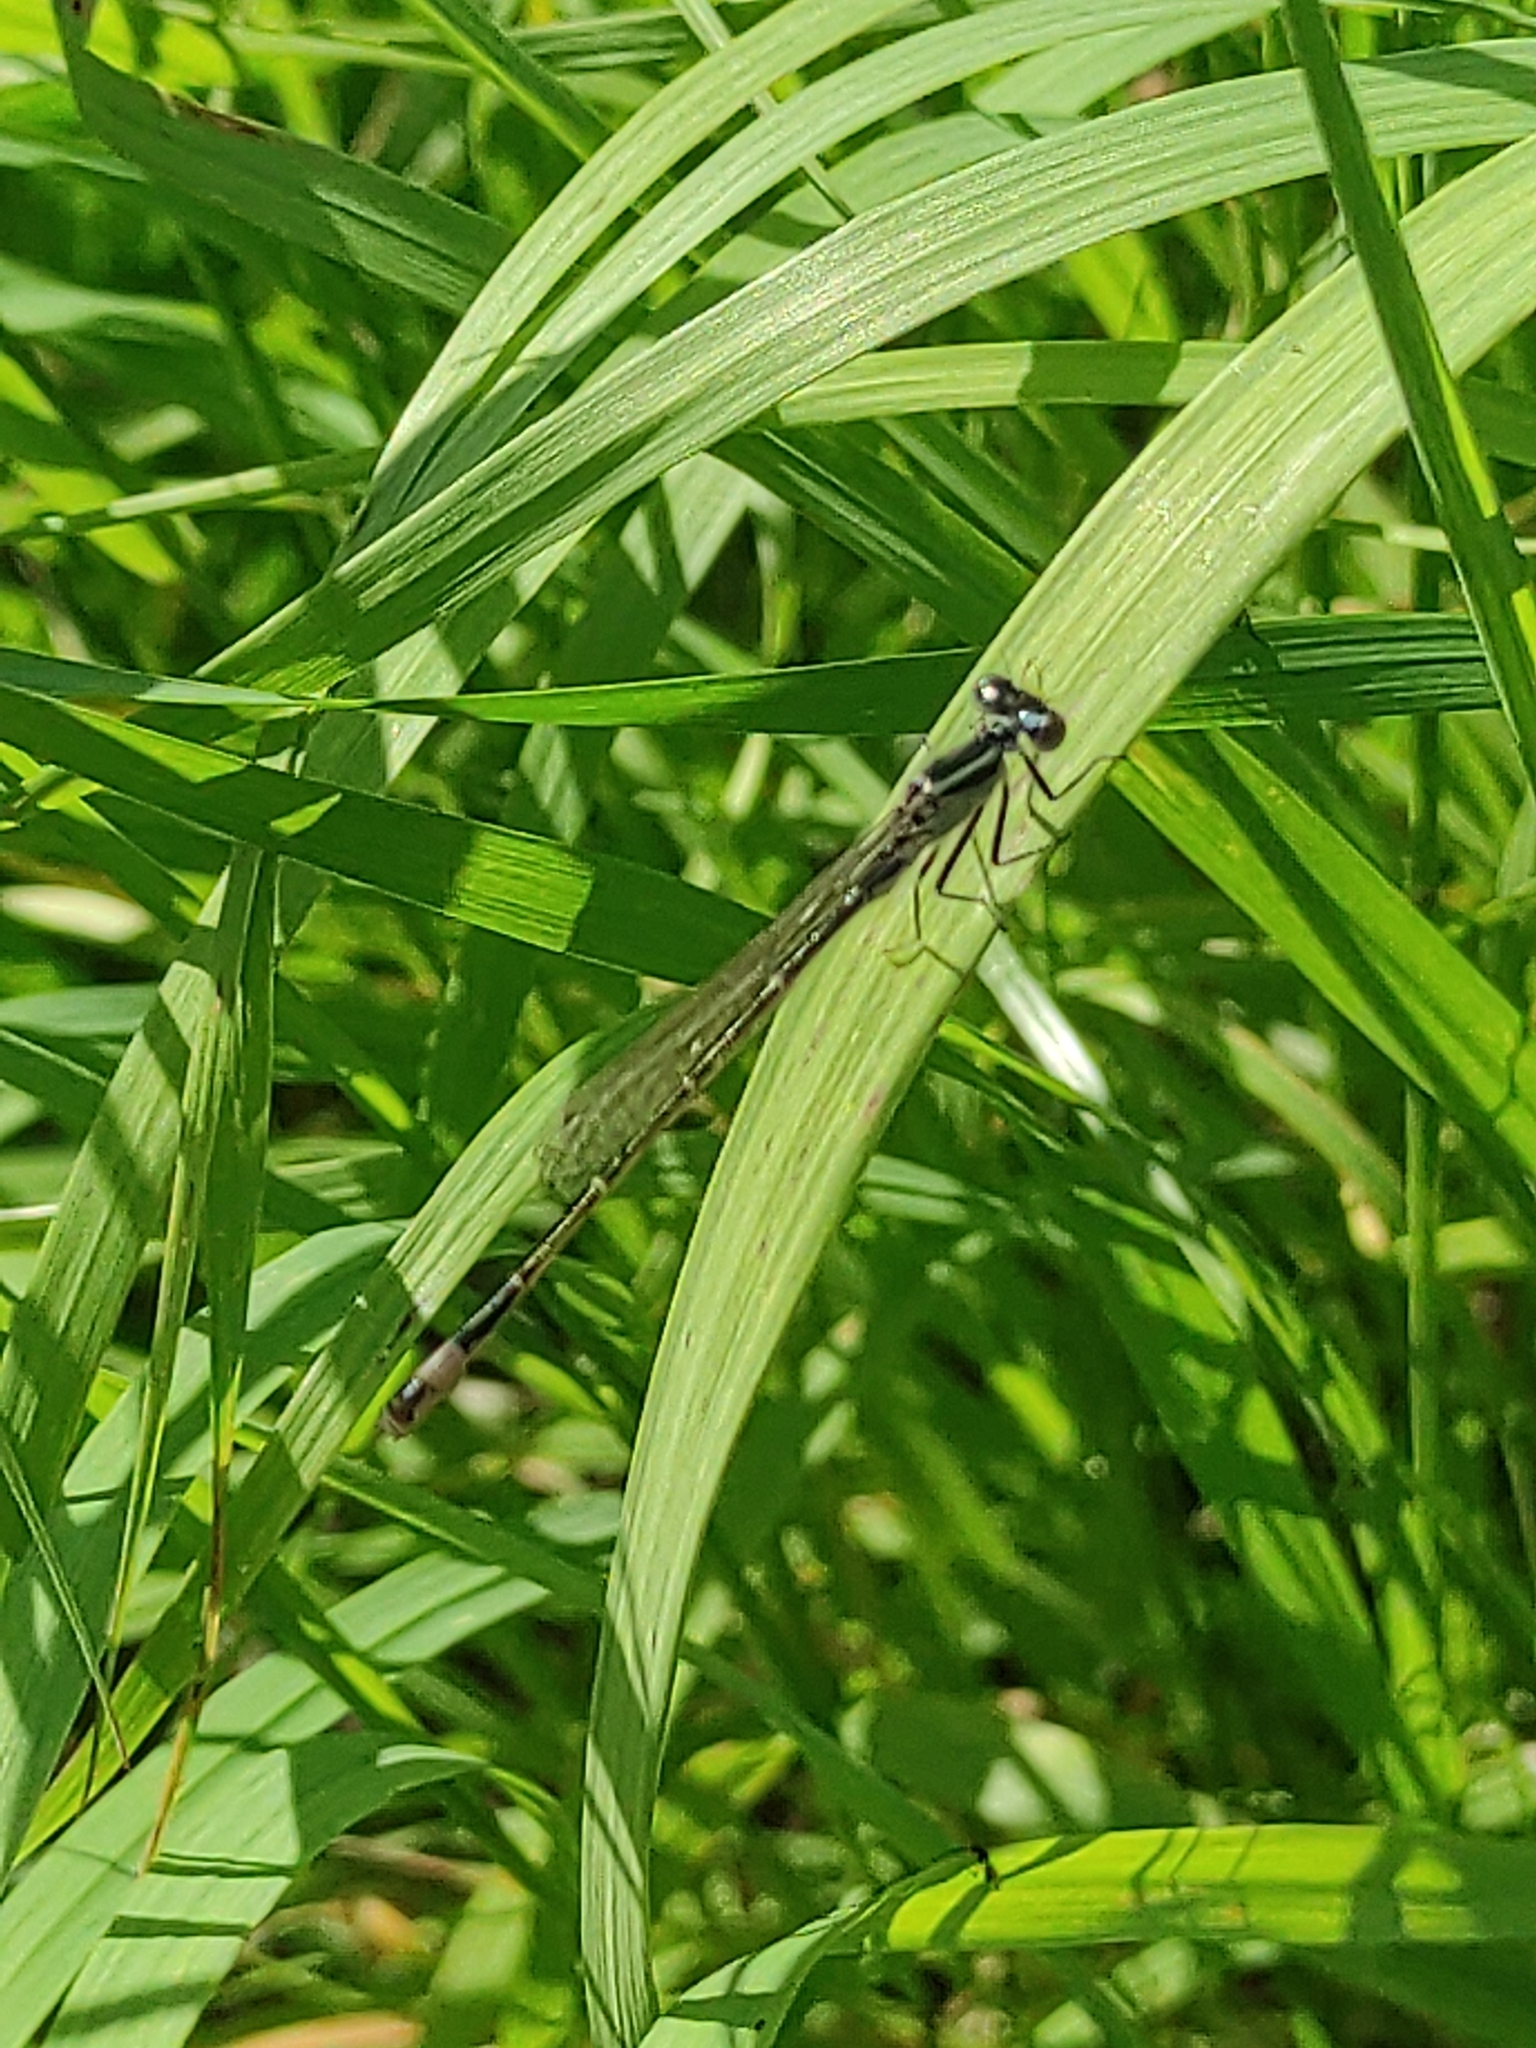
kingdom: Animalia
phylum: Arthropoda
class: Insecta
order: Odonata
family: Coenagrionidae
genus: Ischnura
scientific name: Ischnura elegans
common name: Blue-tailed damselfly
